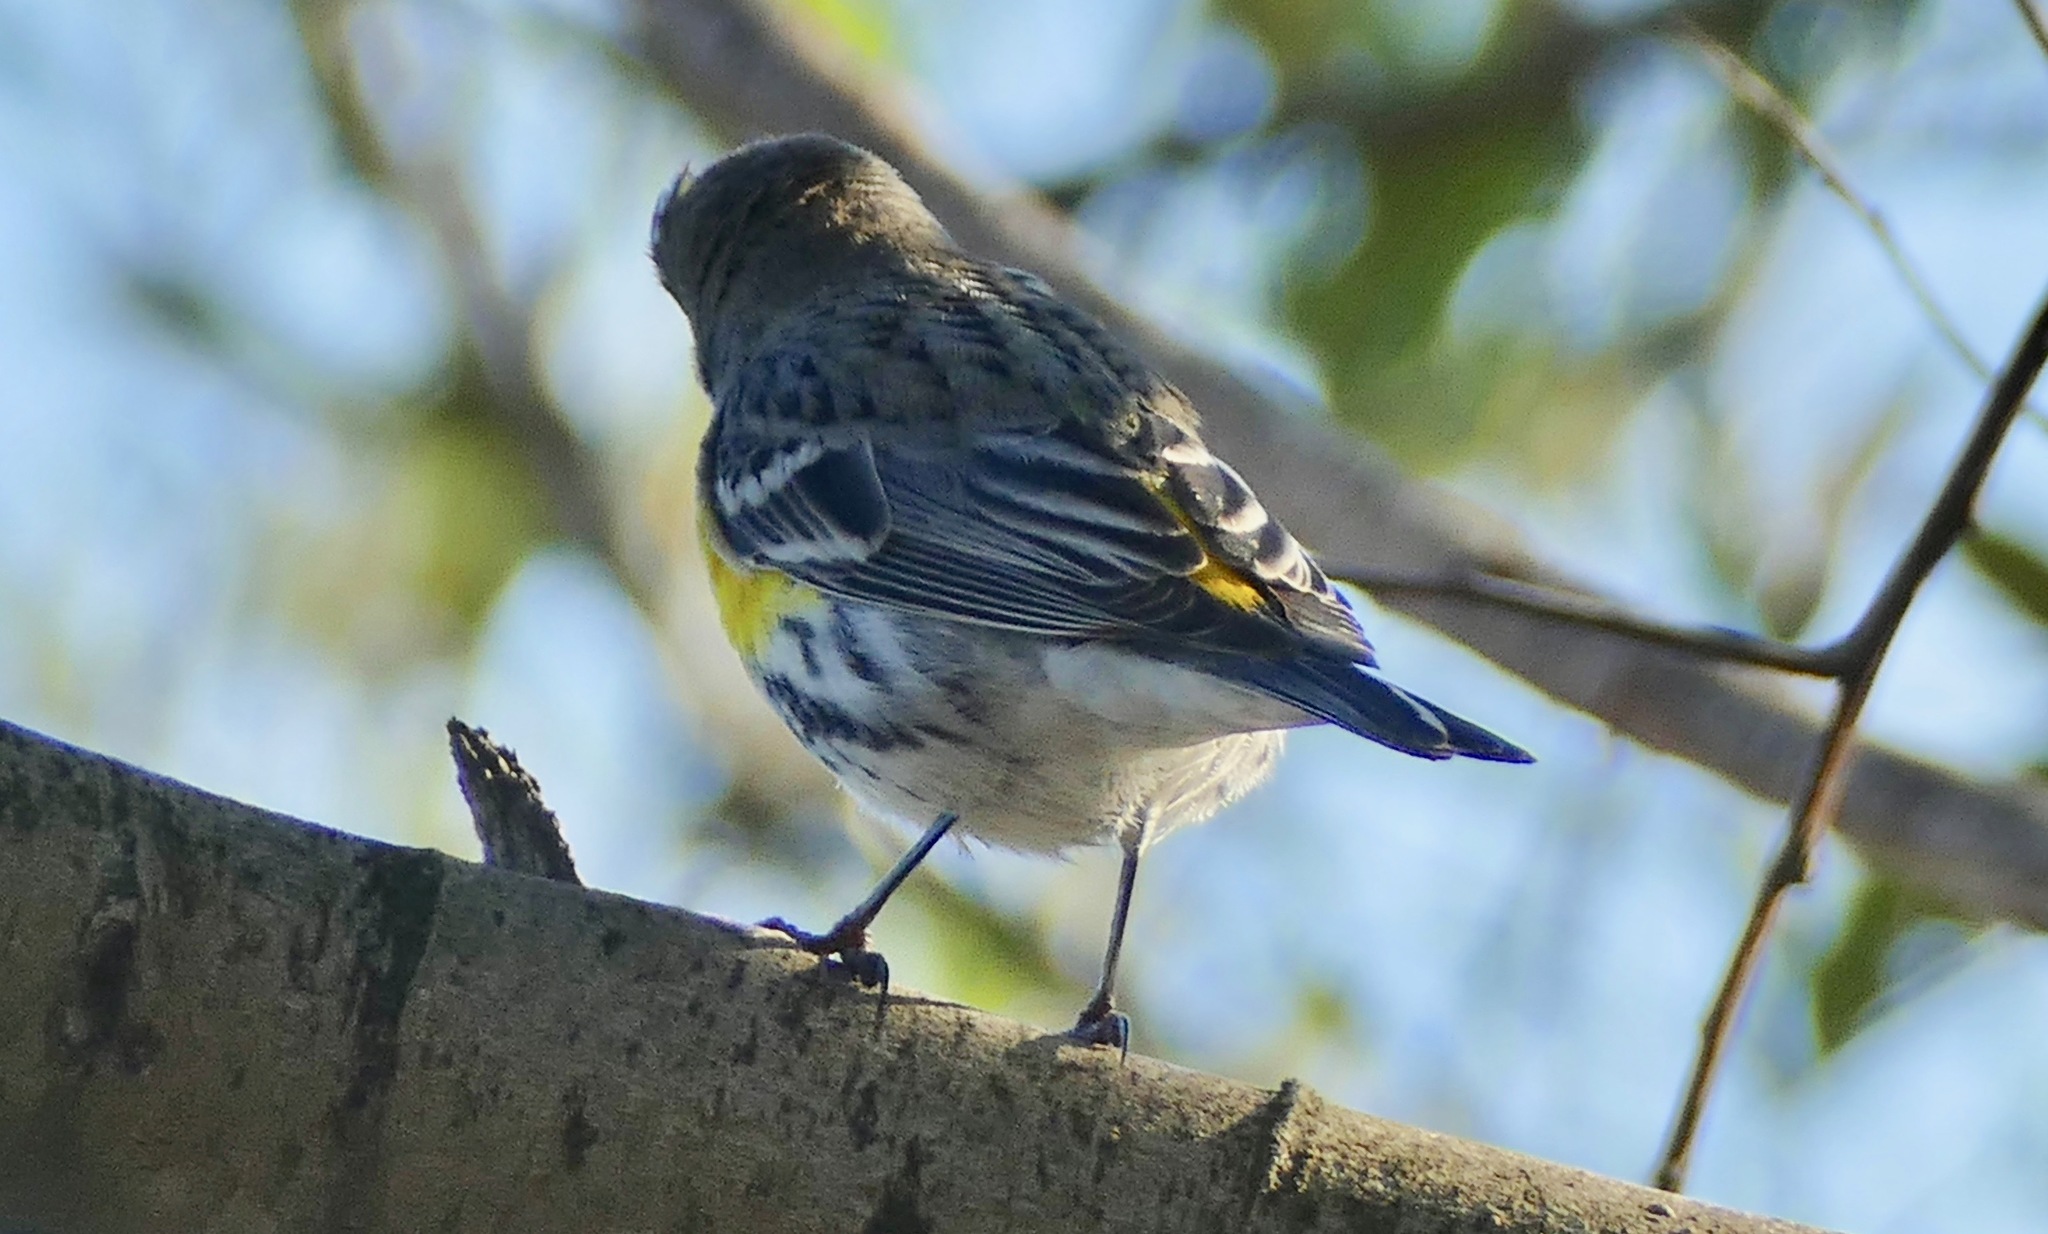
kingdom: Animalia
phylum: Chordata
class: Aves
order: Passeriformes
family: Parulidae
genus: Setophaga
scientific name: Setophaga coronata
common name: Myrtle warbler
